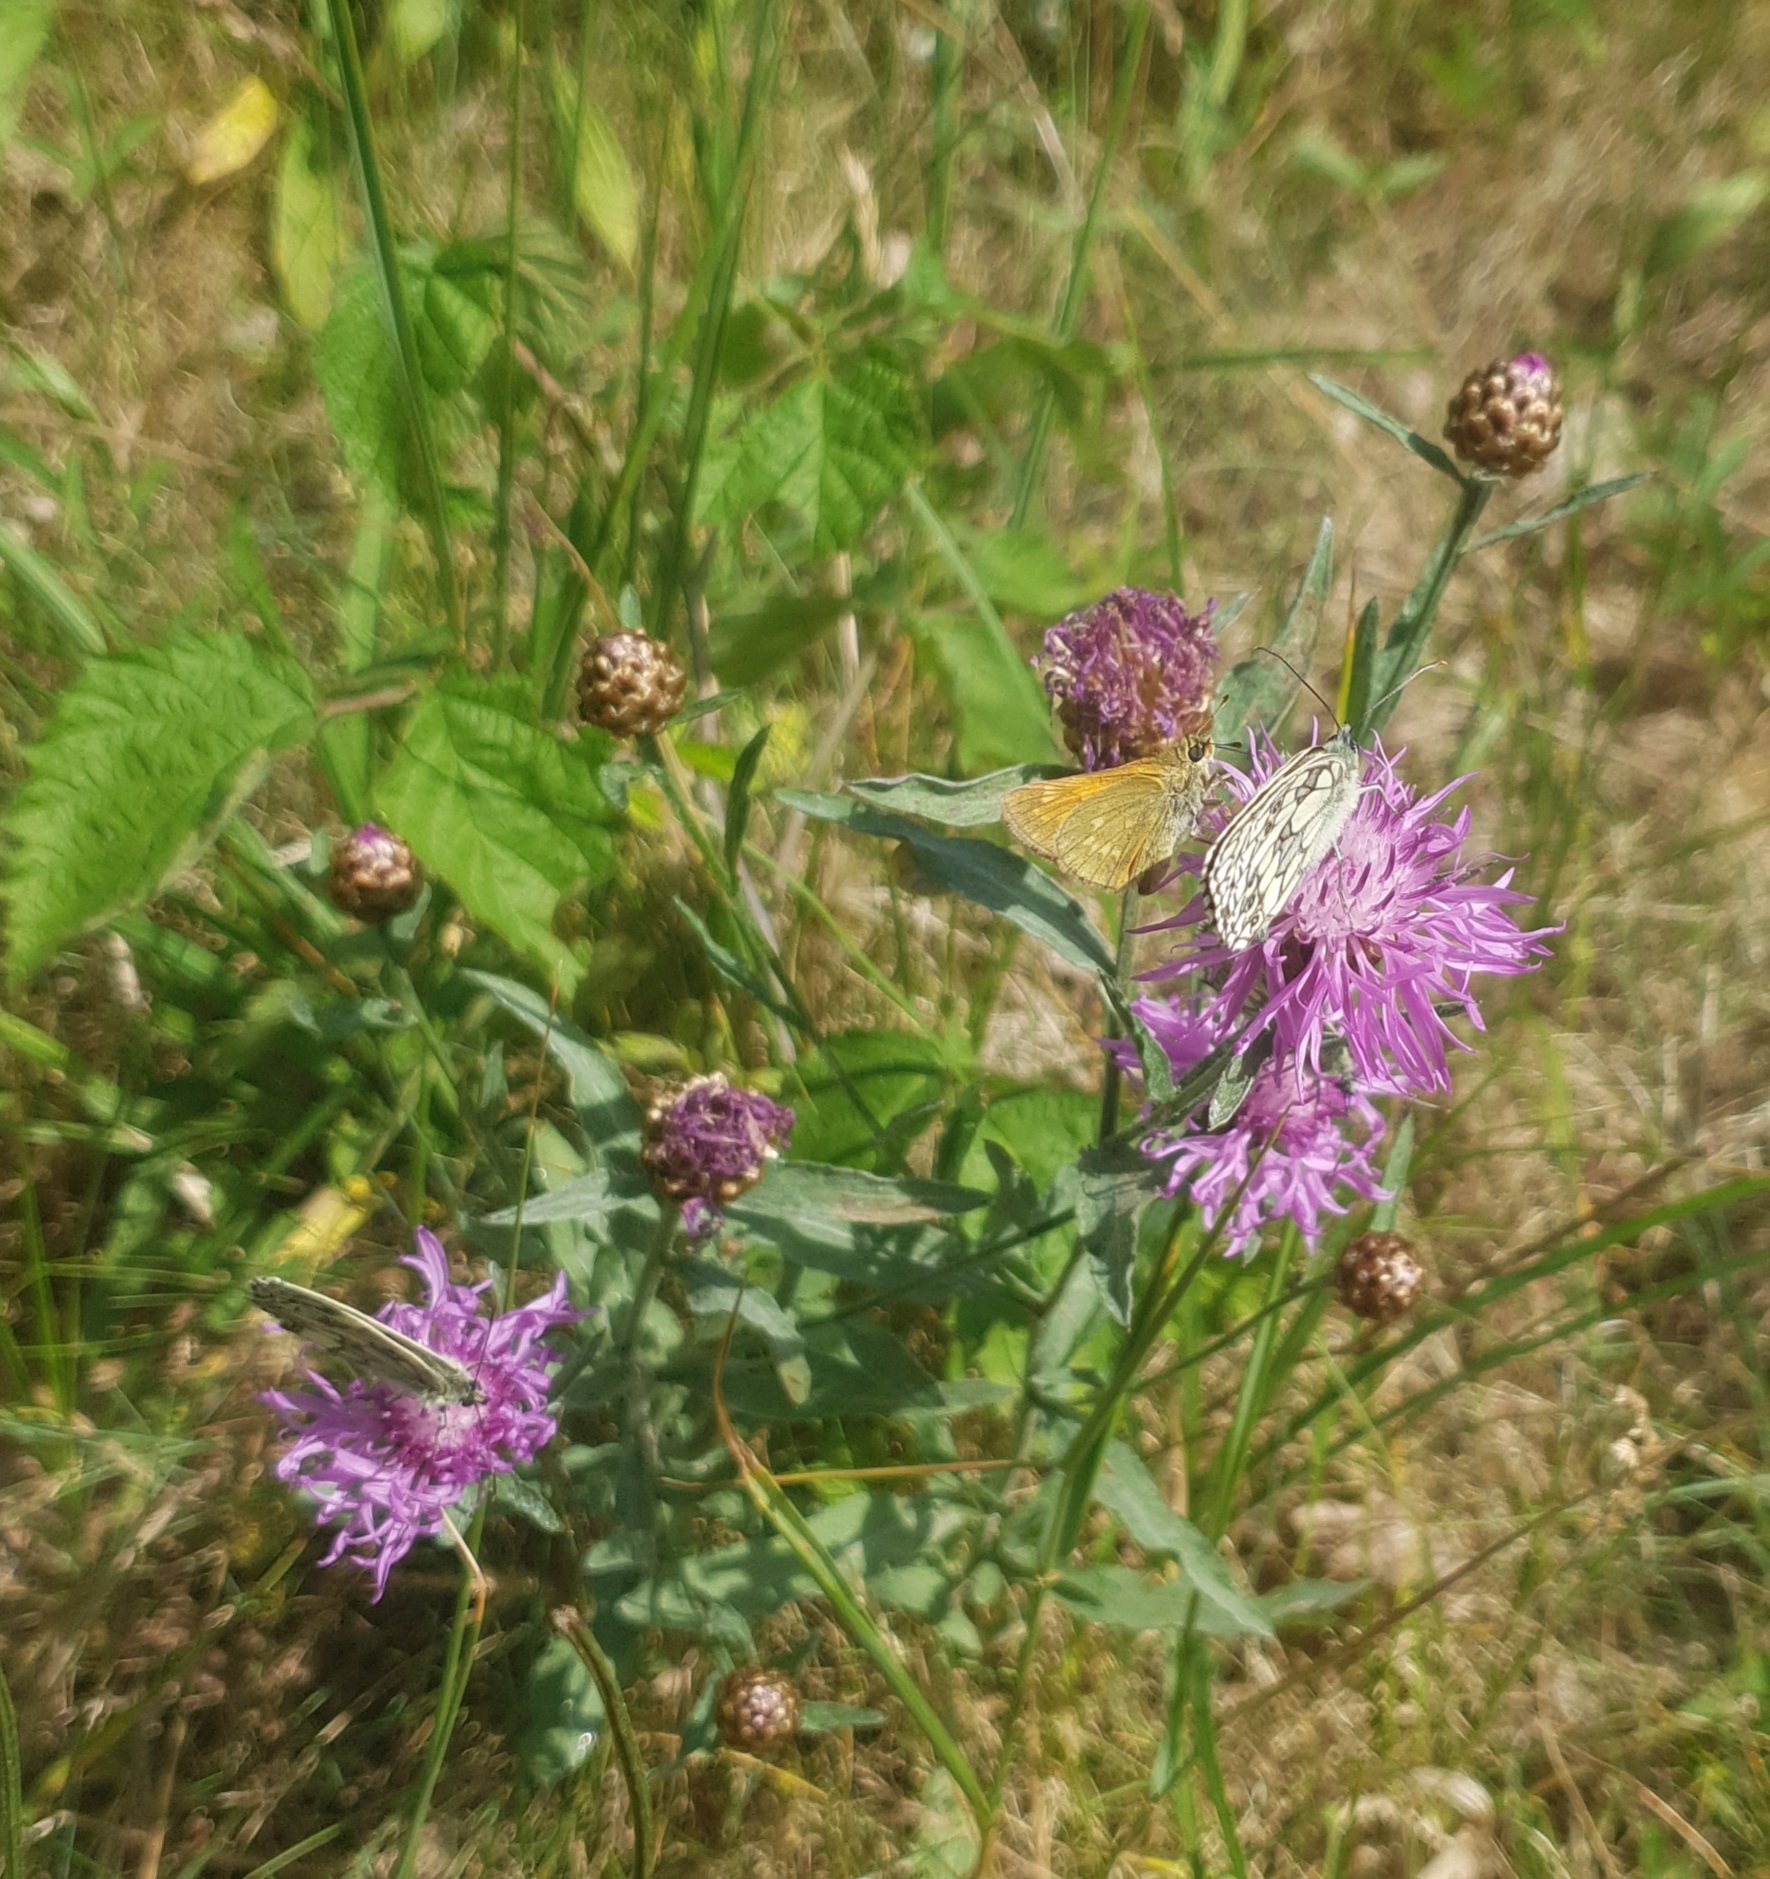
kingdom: Animalia
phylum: Arthropoda
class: Insecta
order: Lepidoptera
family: Hesperiidae
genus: Ochlodes
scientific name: Ochlodes venata
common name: Large skipper
